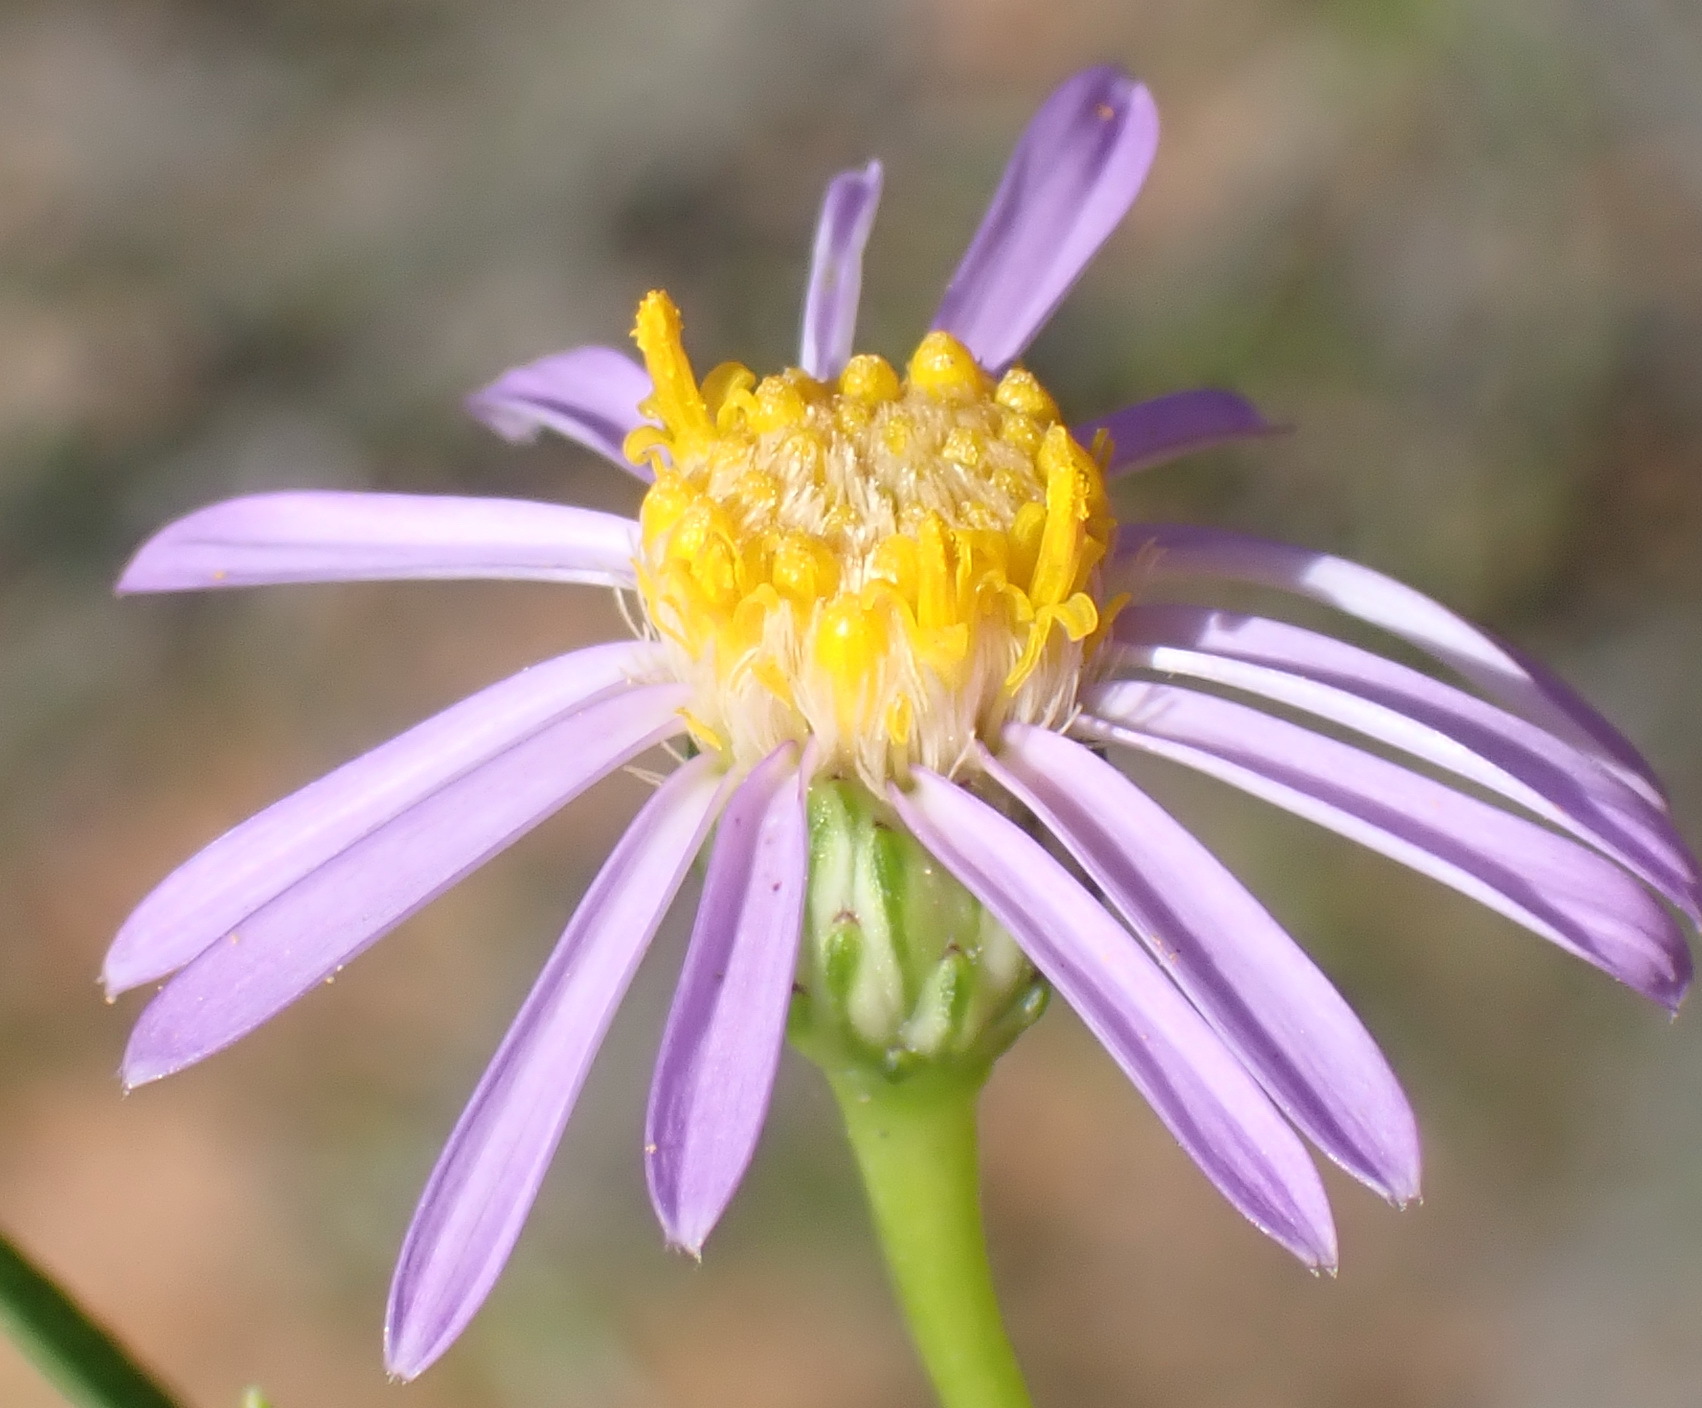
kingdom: Plantae
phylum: Tracheophyta
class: Magnoliopsida
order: Asterales
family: Asteraceae
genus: Felicia
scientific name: Felicia filifolia
